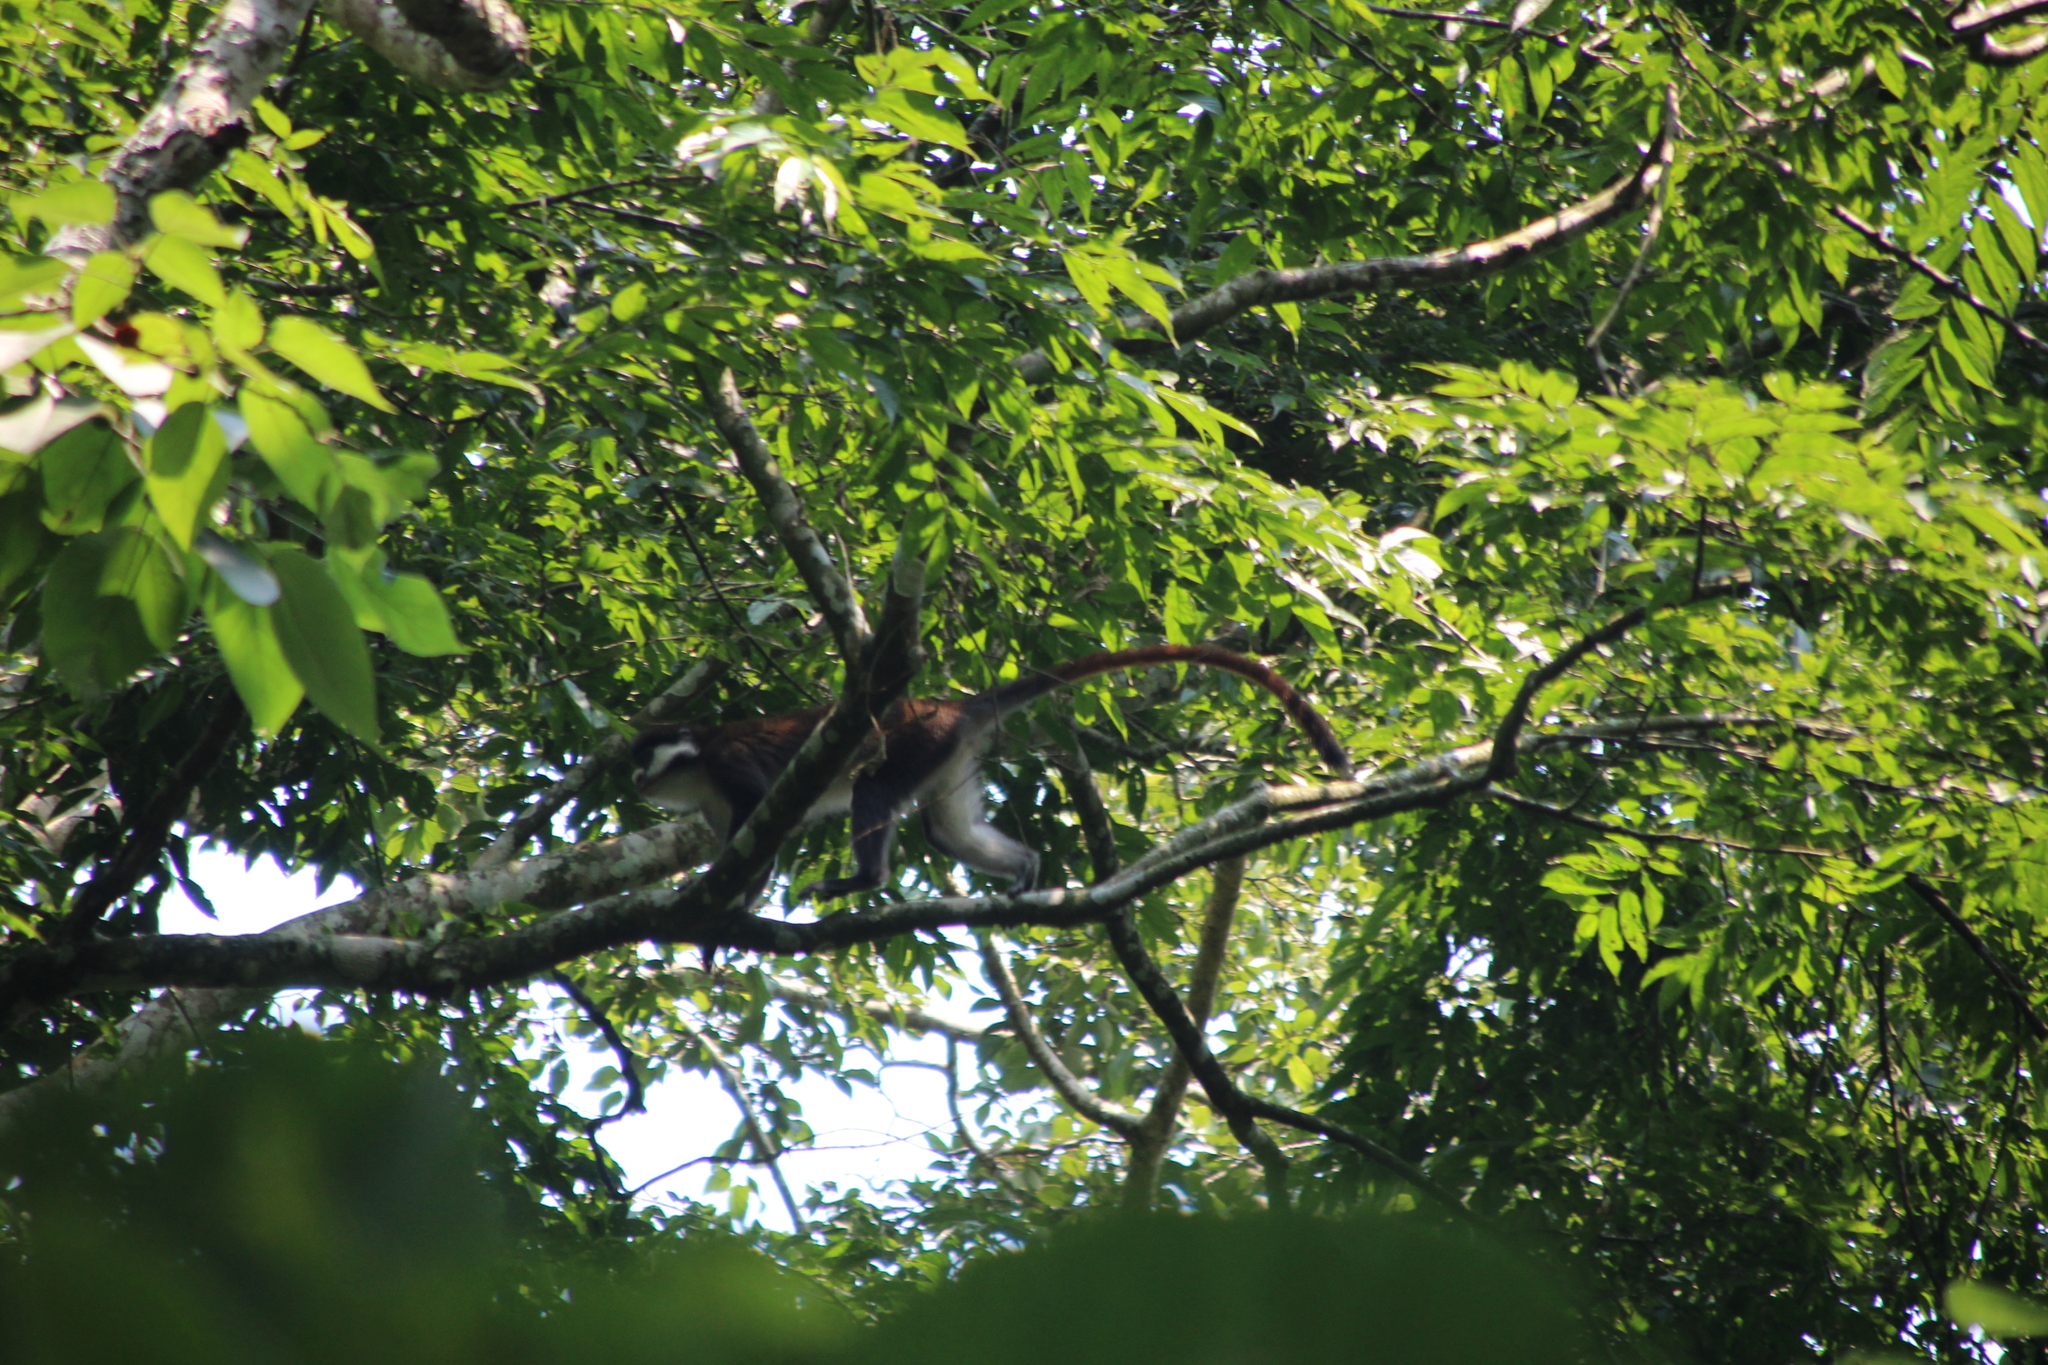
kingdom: Animalia
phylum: Chordata
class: Mammalia
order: Primates
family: Cercopithecidae
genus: Cercopithecus
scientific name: Cercopithecus ascanius
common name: Red-tailed monkey
